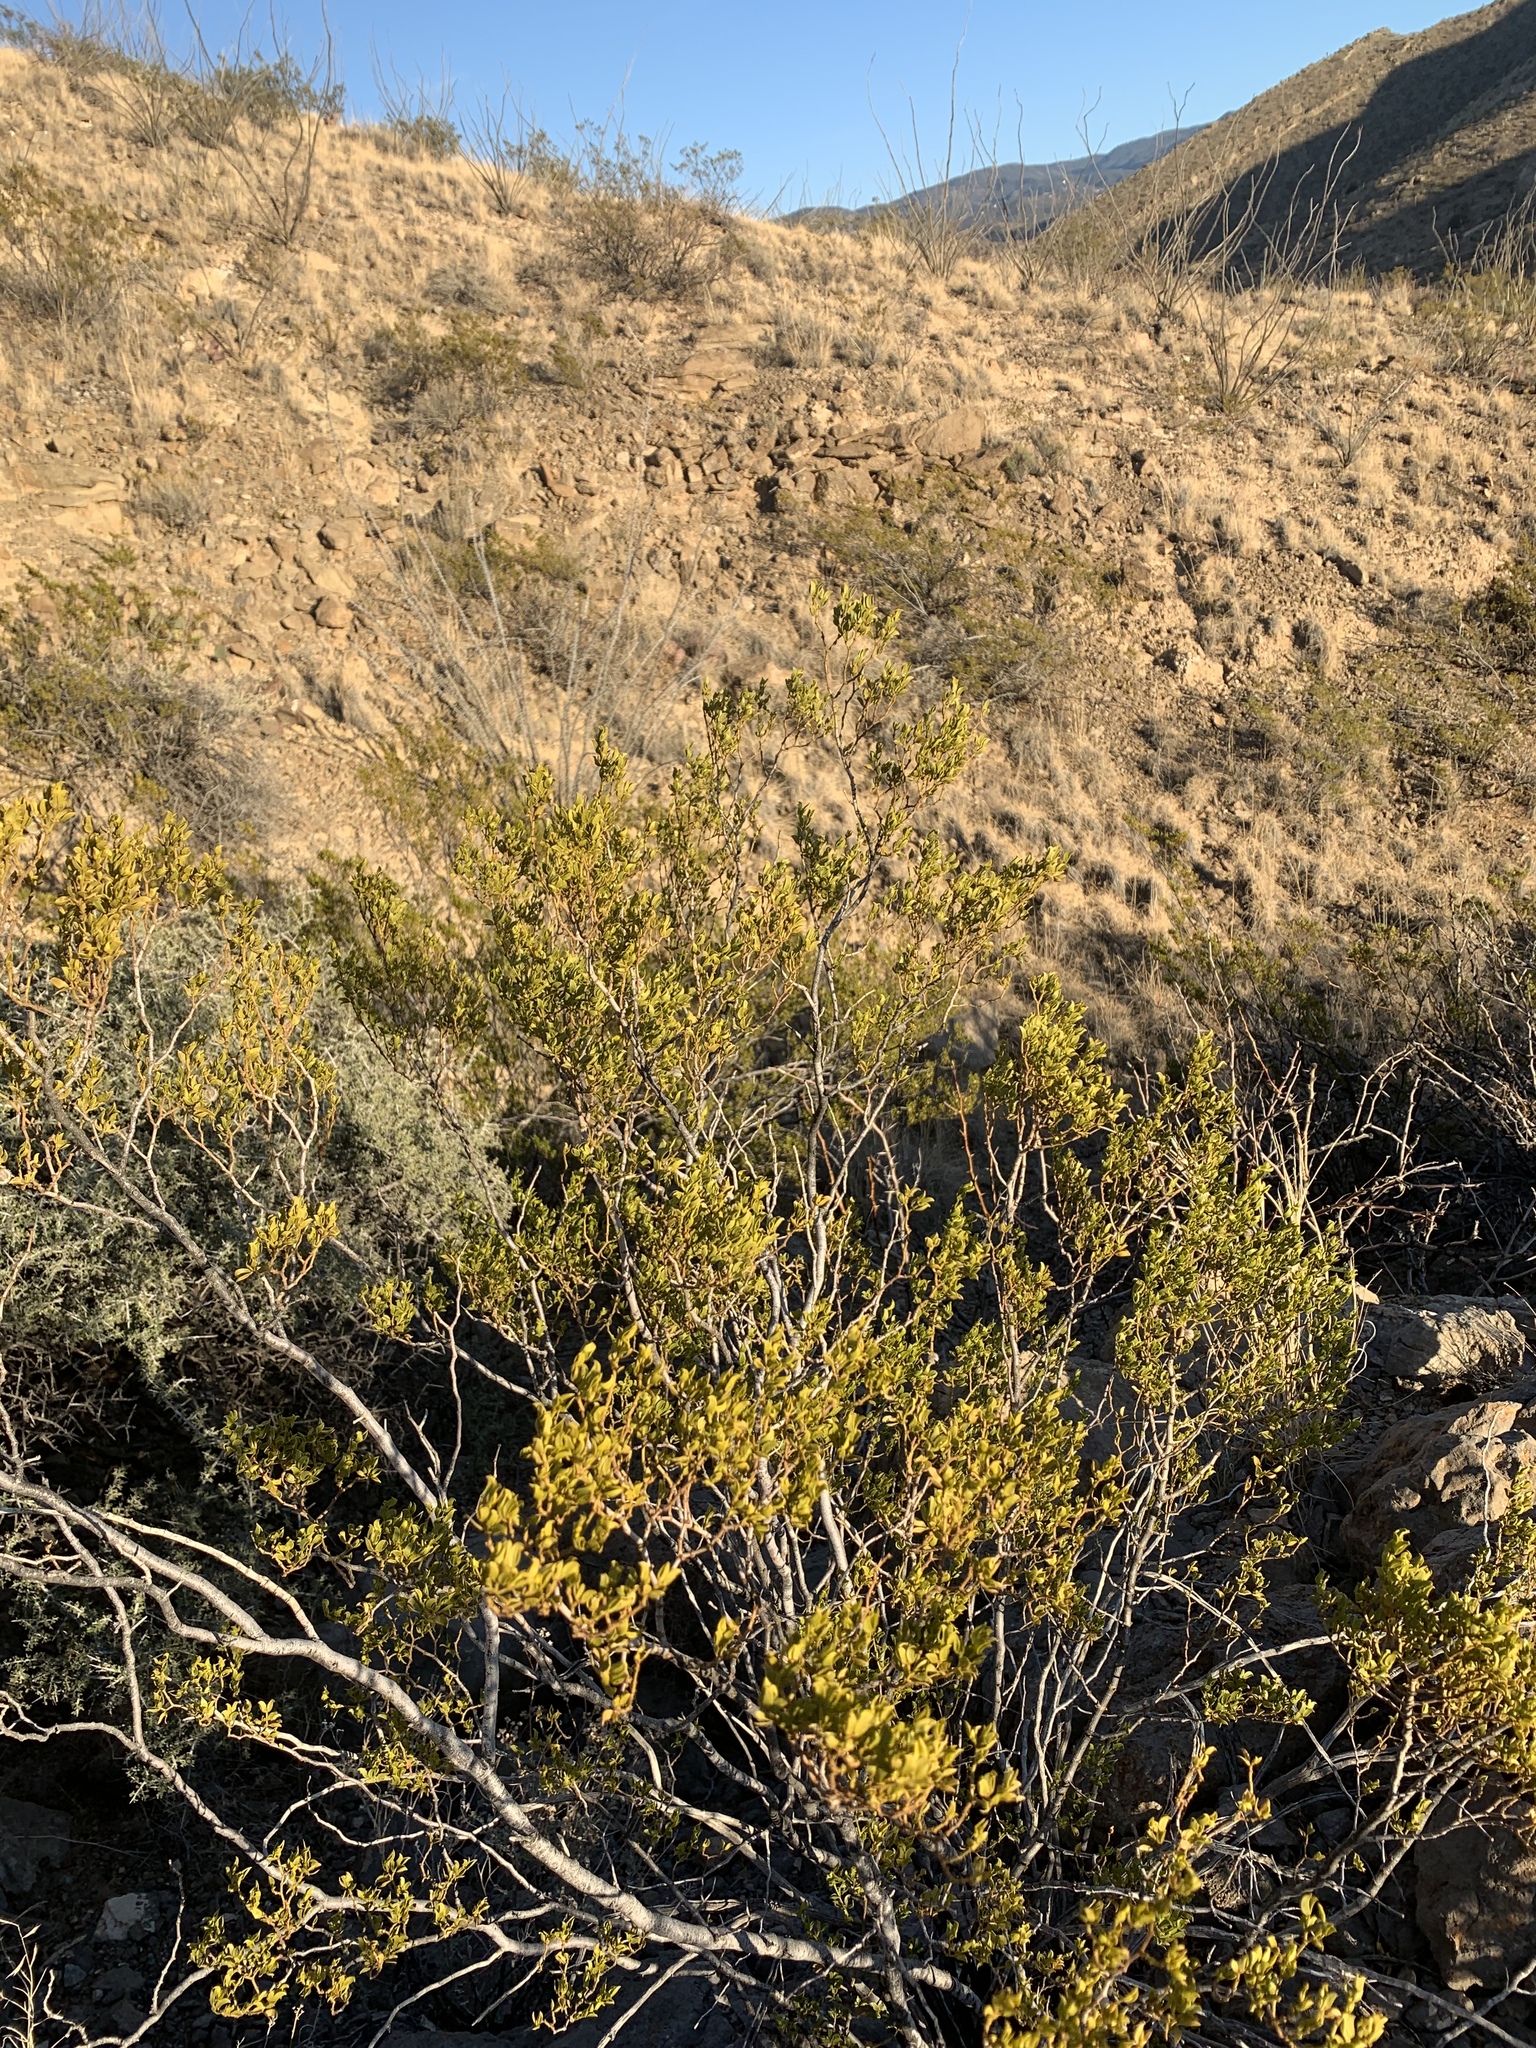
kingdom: Plantae
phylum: Tracheophyta
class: Magnoliopsida
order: Zygophyllales
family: Zygophyllaceae
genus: Larrea
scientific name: Larrea tridentata
